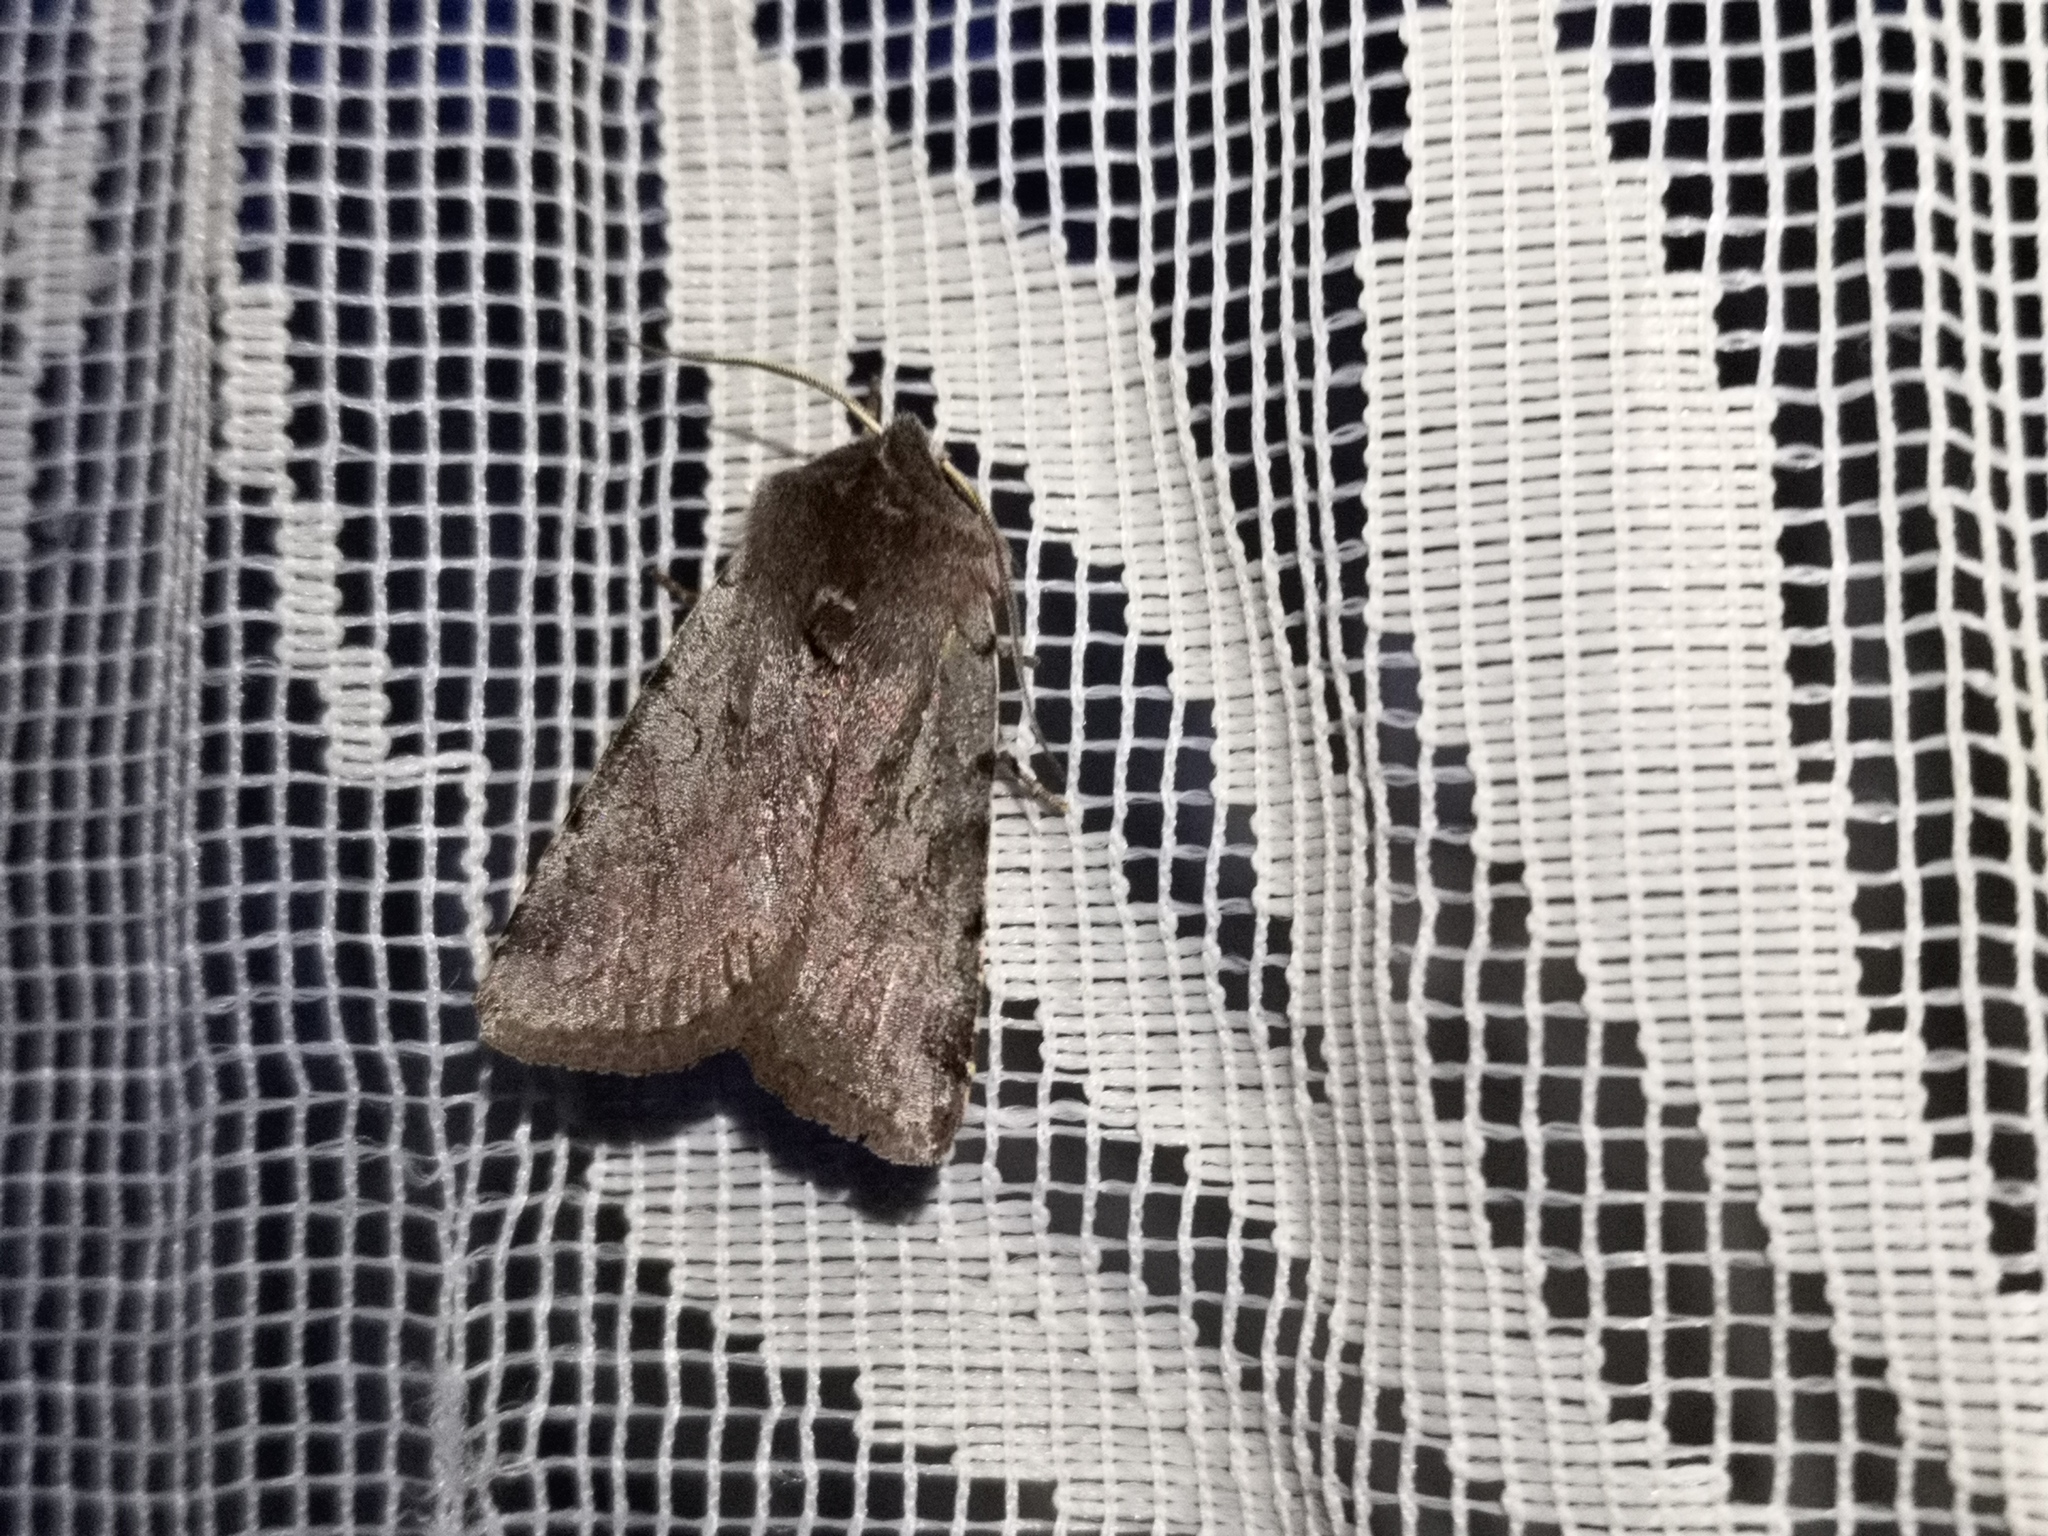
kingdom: Animalia
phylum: Arthropoda
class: Insecta
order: Lepidoptera
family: Noctuidae
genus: Cerastis
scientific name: Cerastis rubricosa
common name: Red chestnut
